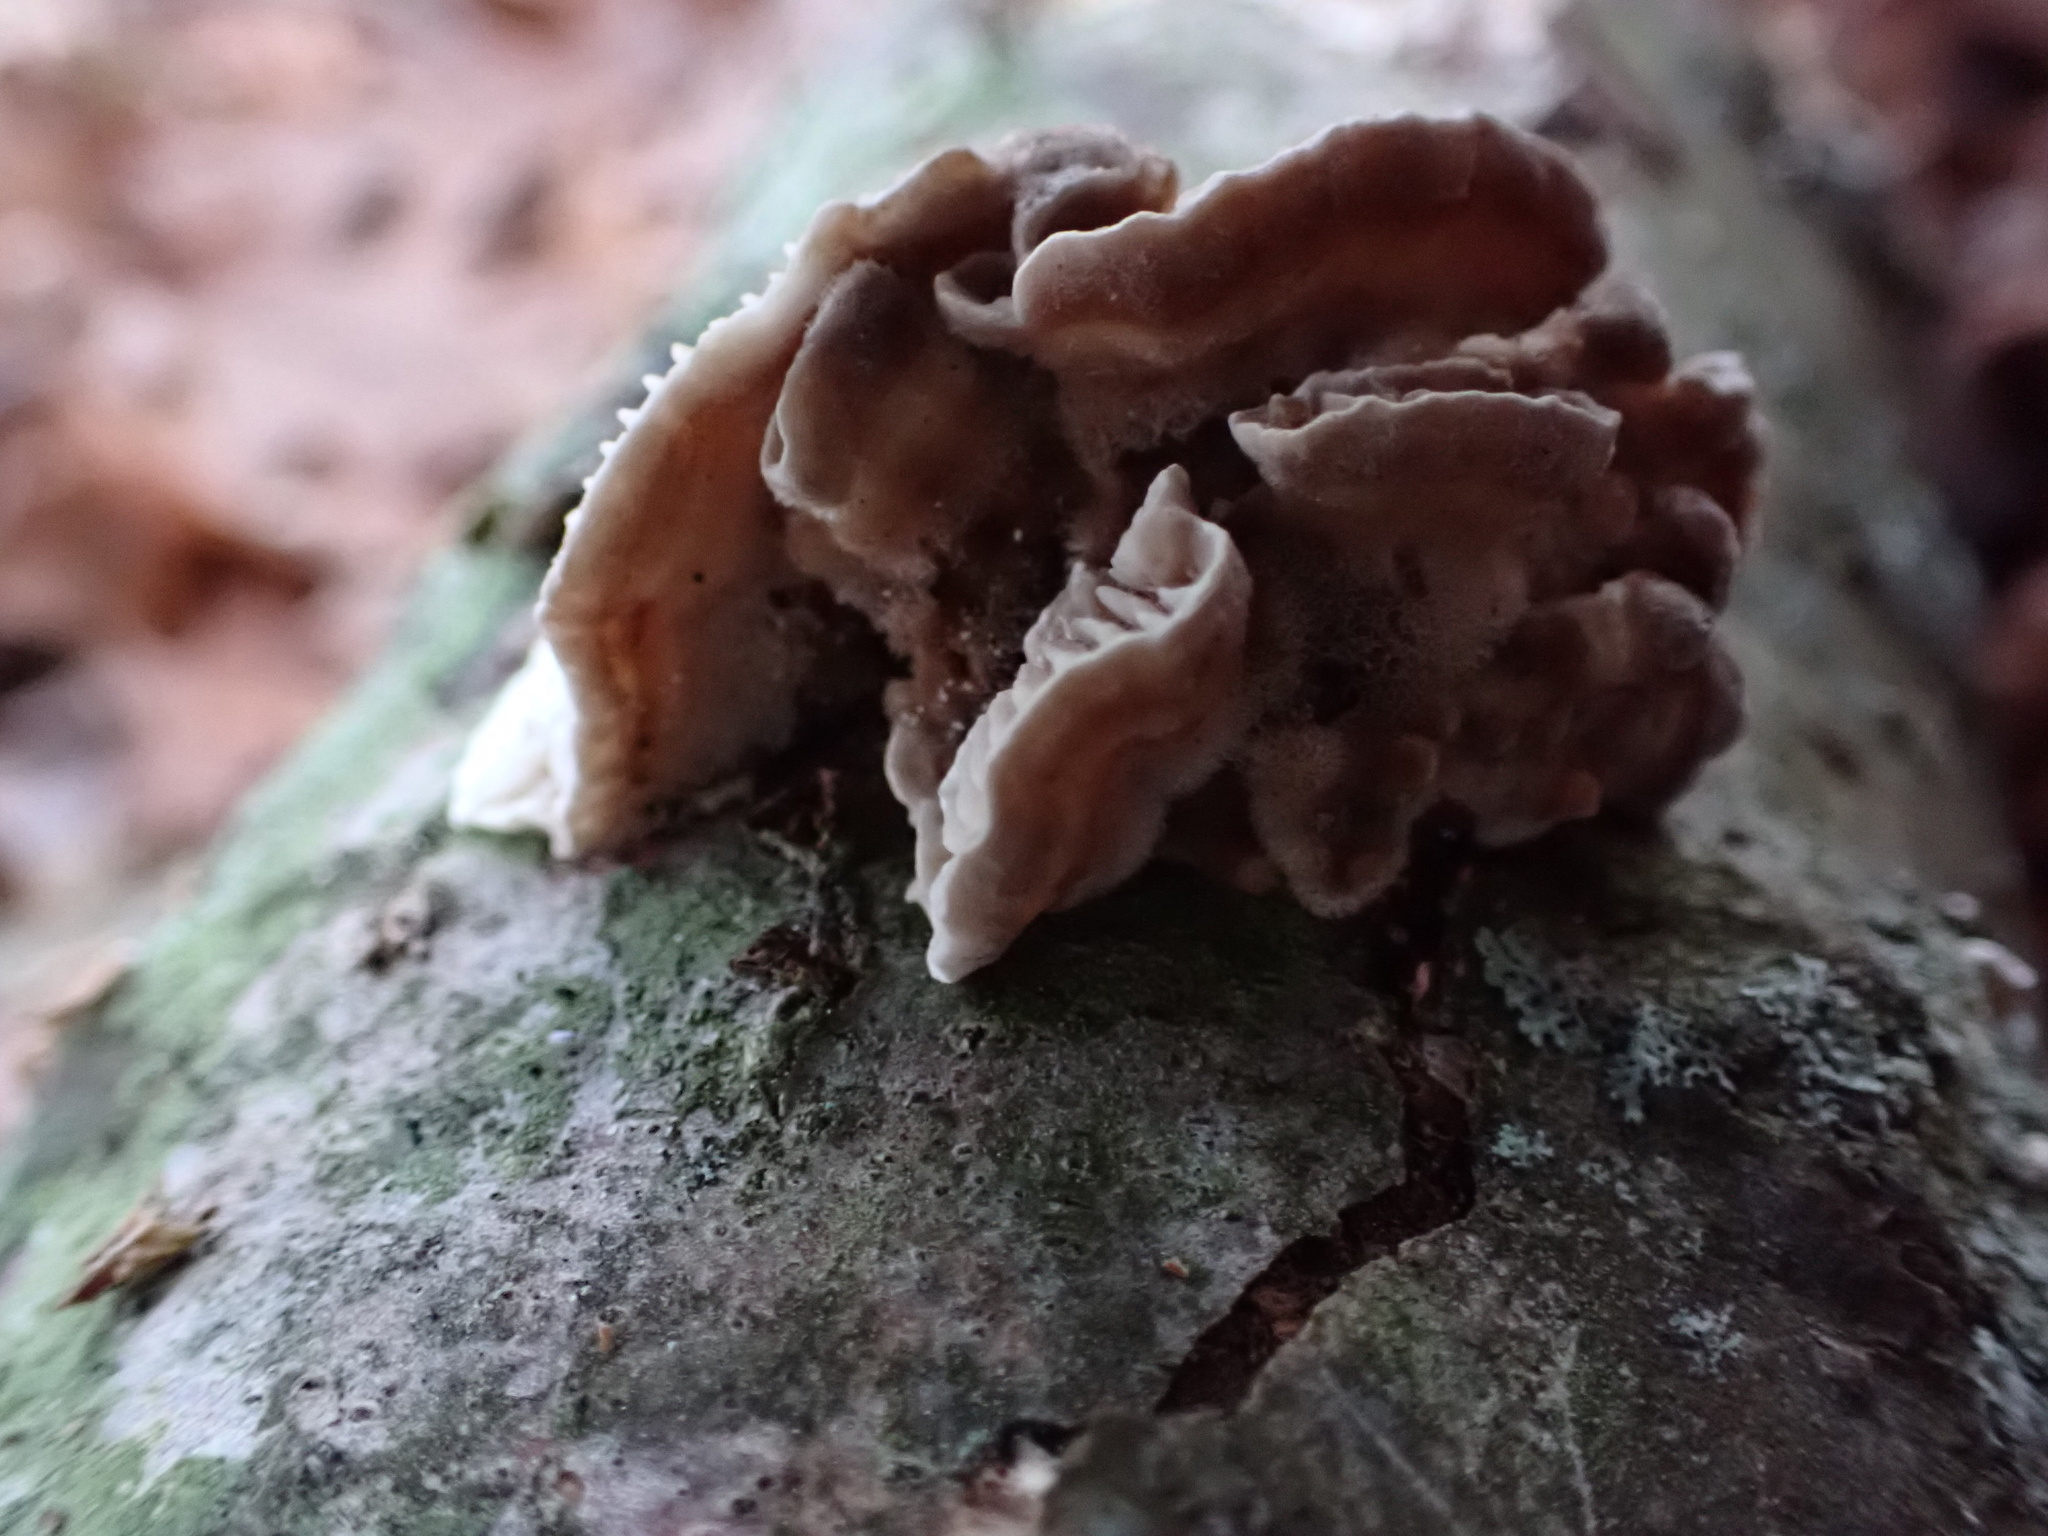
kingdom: Fungi
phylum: Basidiomycota
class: Agaricomycetes
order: Polyporales
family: Polyporaceae
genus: Lenzites
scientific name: Lenzites betulinus
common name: Birch mazegill
